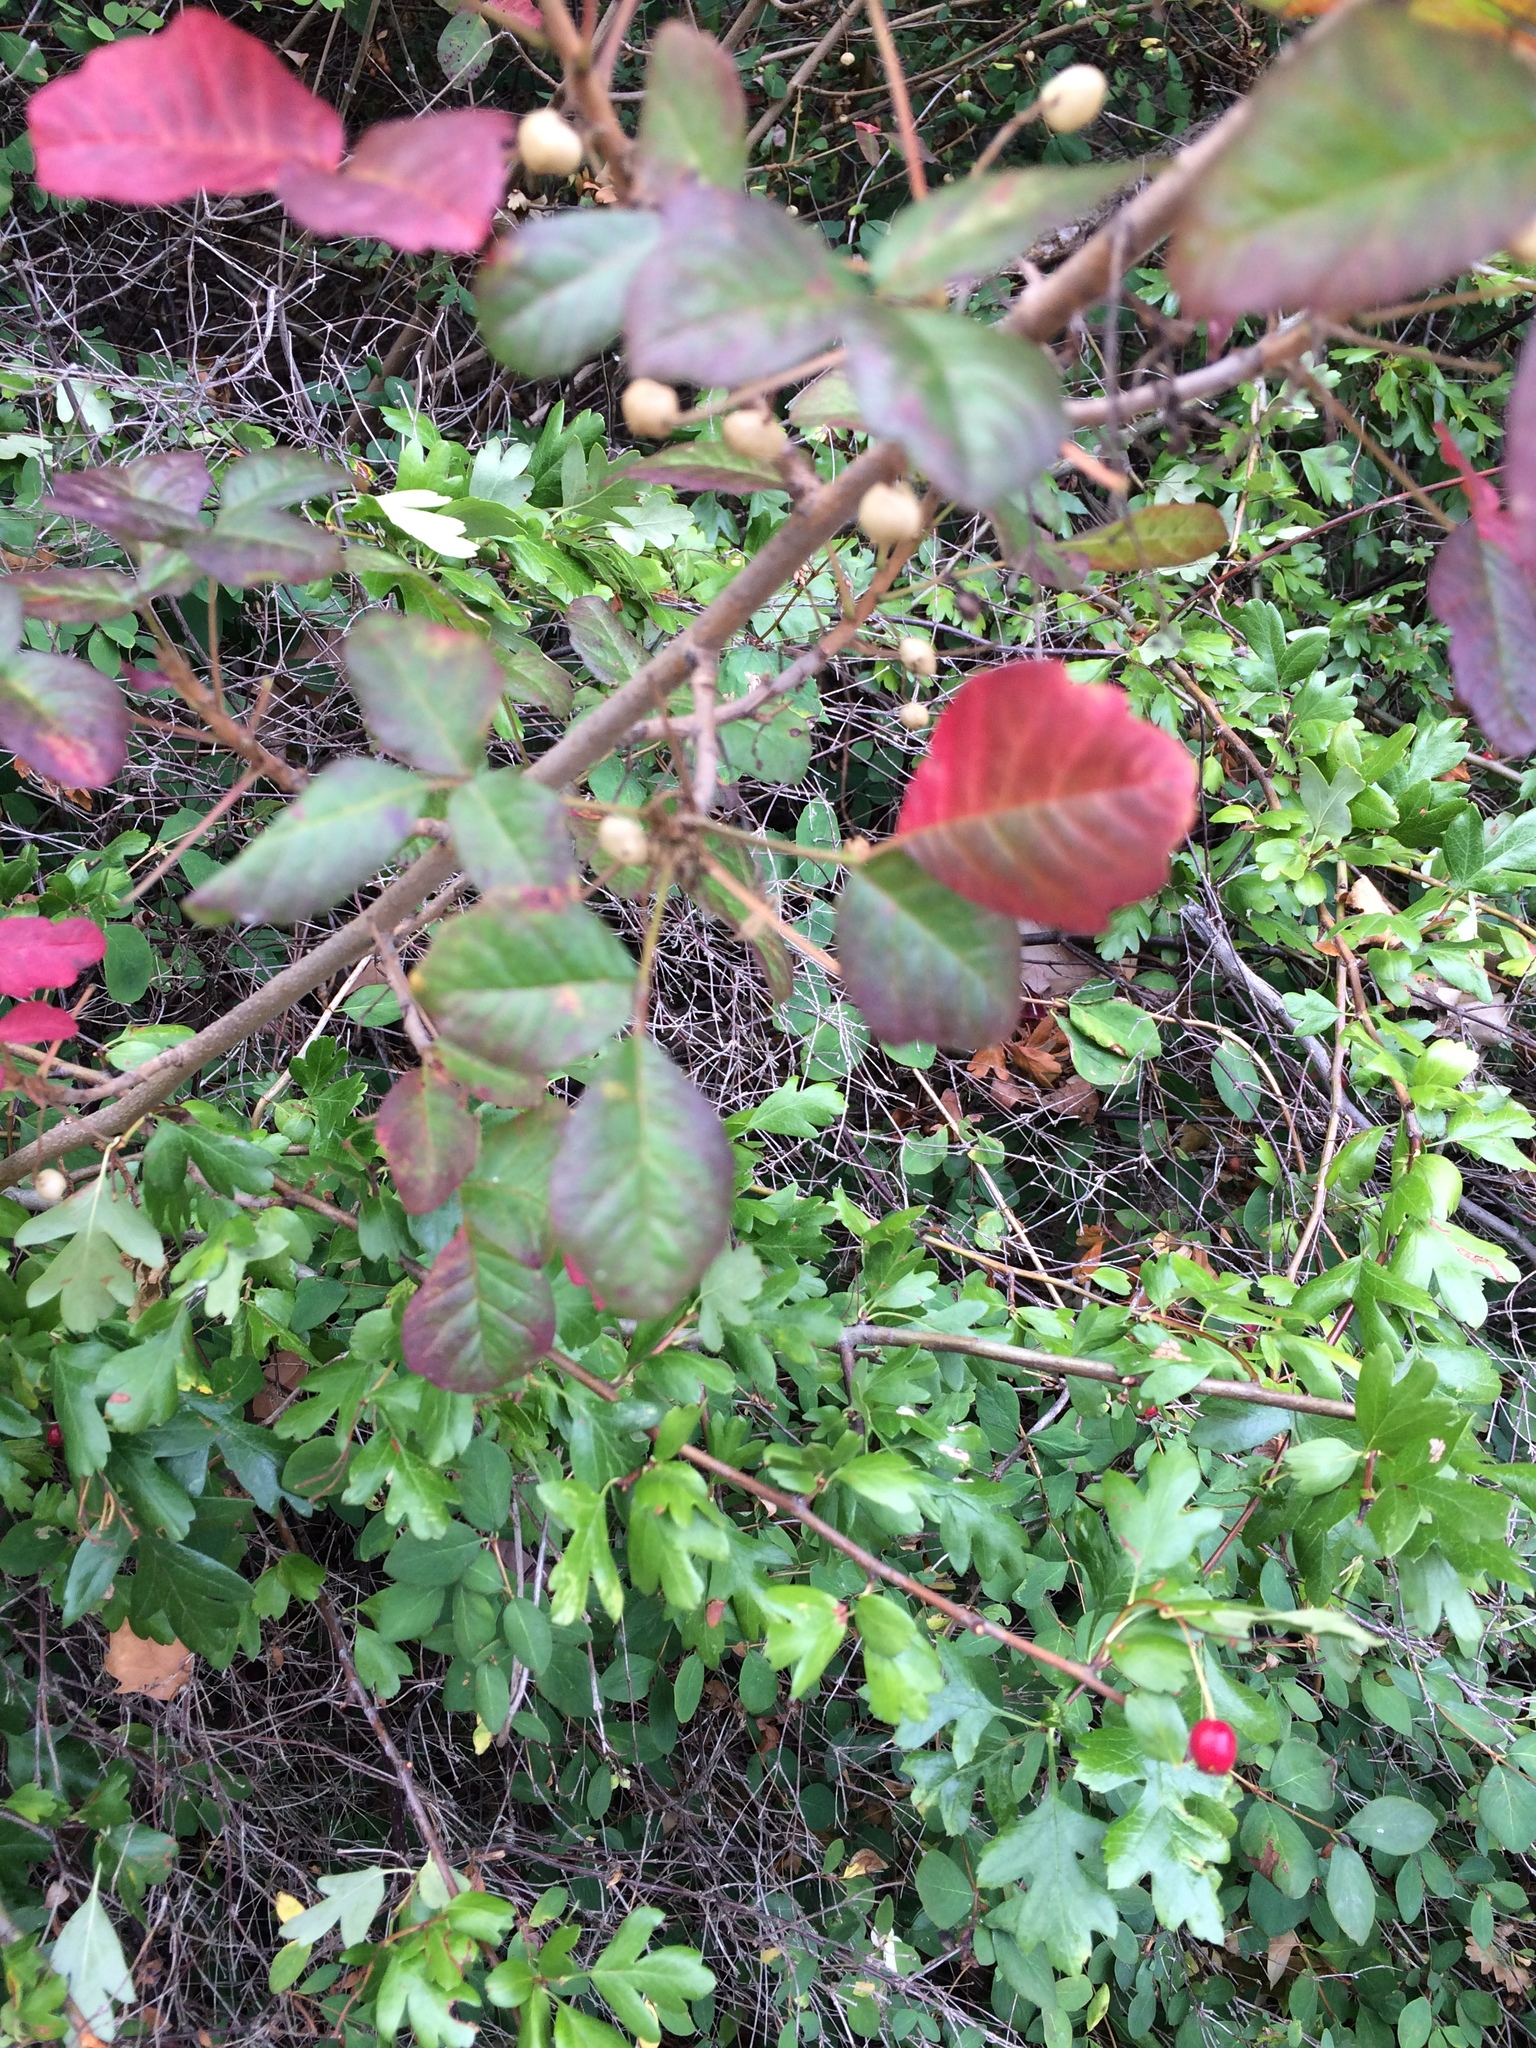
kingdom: Plantae
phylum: Tracheophyta
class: Magnoliopsida
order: Sapindales
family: Anacardiaceae
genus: Toxicodendron
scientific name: Toxicodendron diversilobum
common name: Pacific poison-oak
